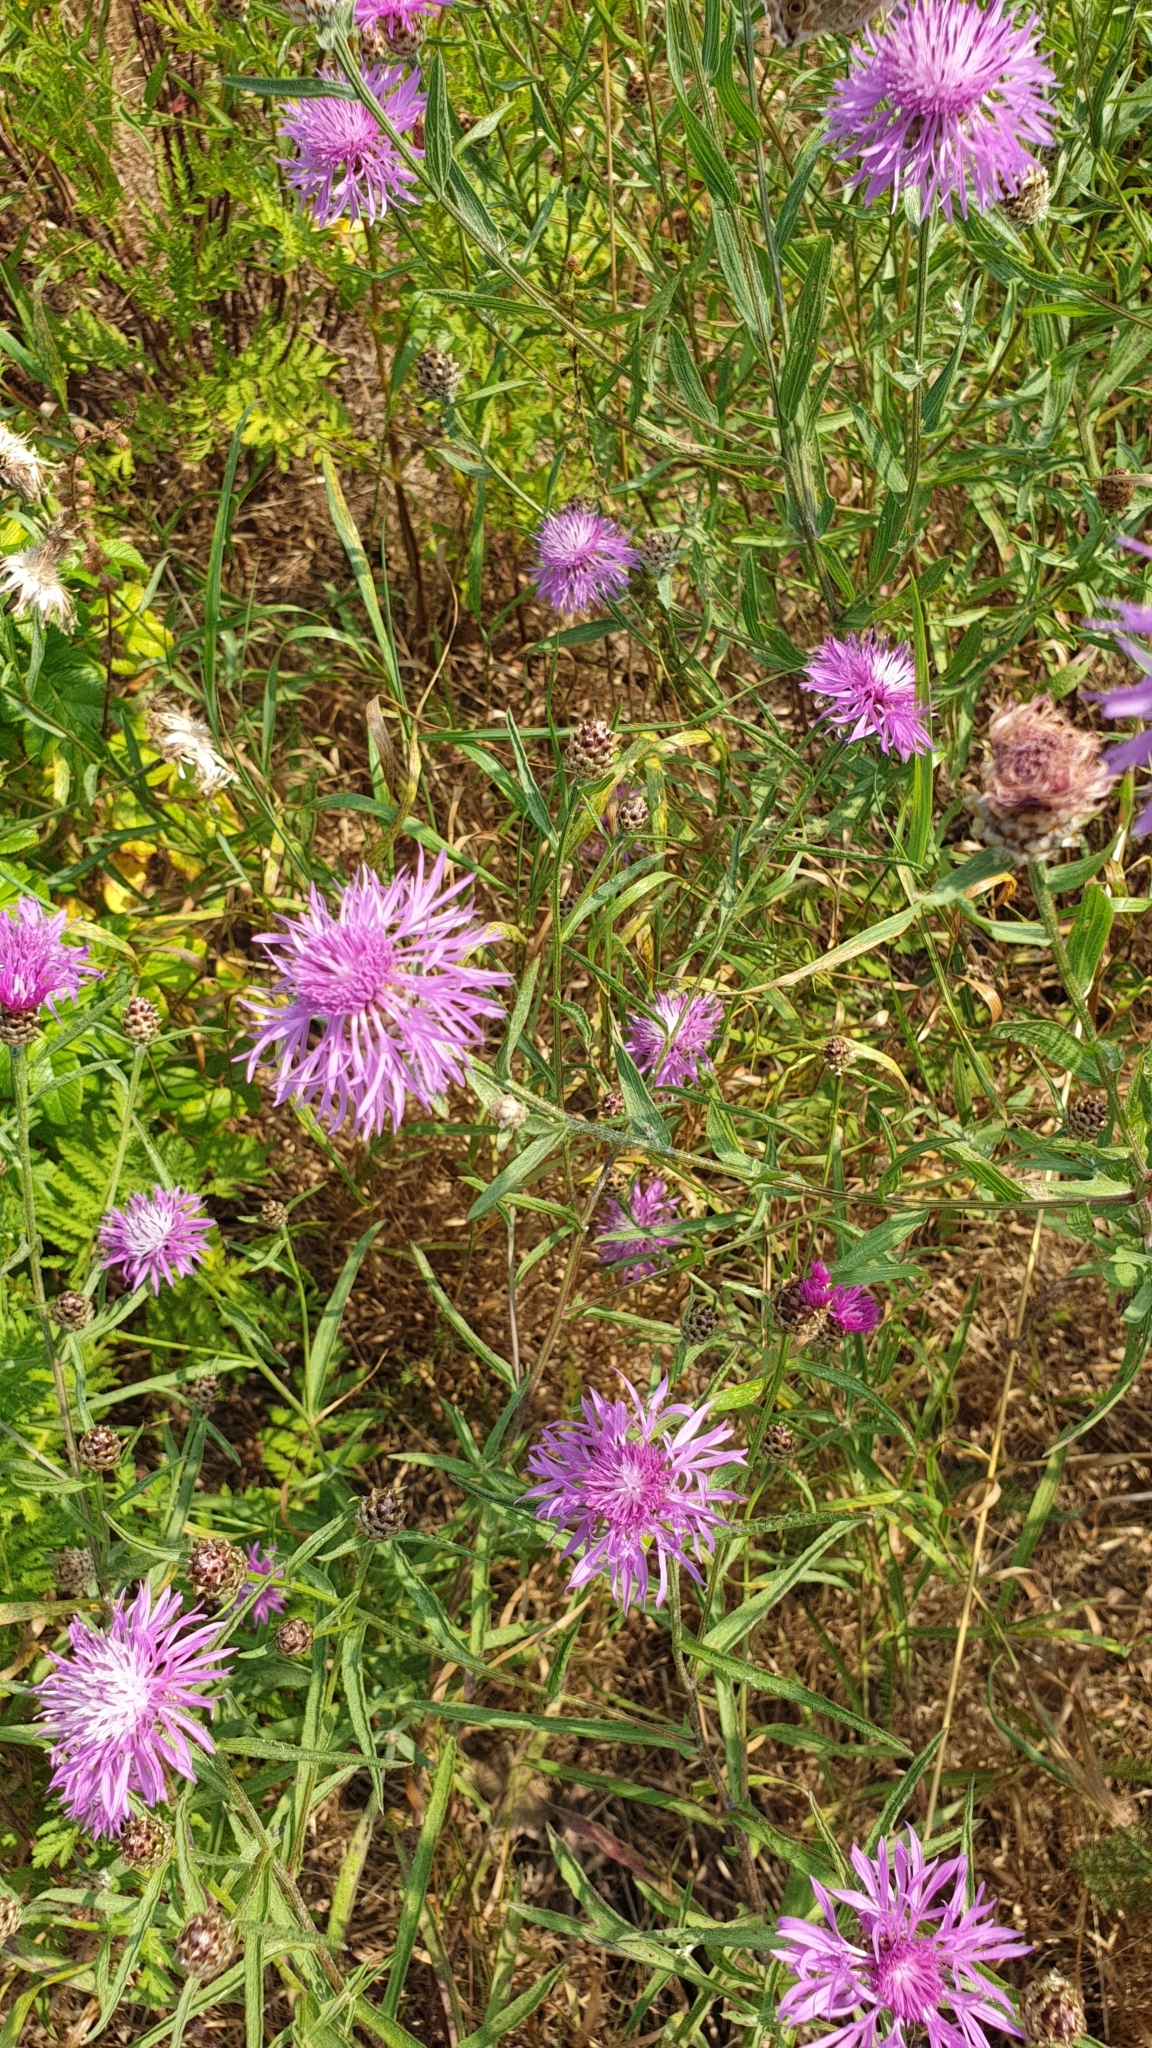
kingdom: Plantae
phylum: Tracheophyta
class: Magnoliopsida
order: Asterales
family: Asteraceae
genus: Centaurea
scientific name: Centaurea jacea
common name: Brown knapweed
